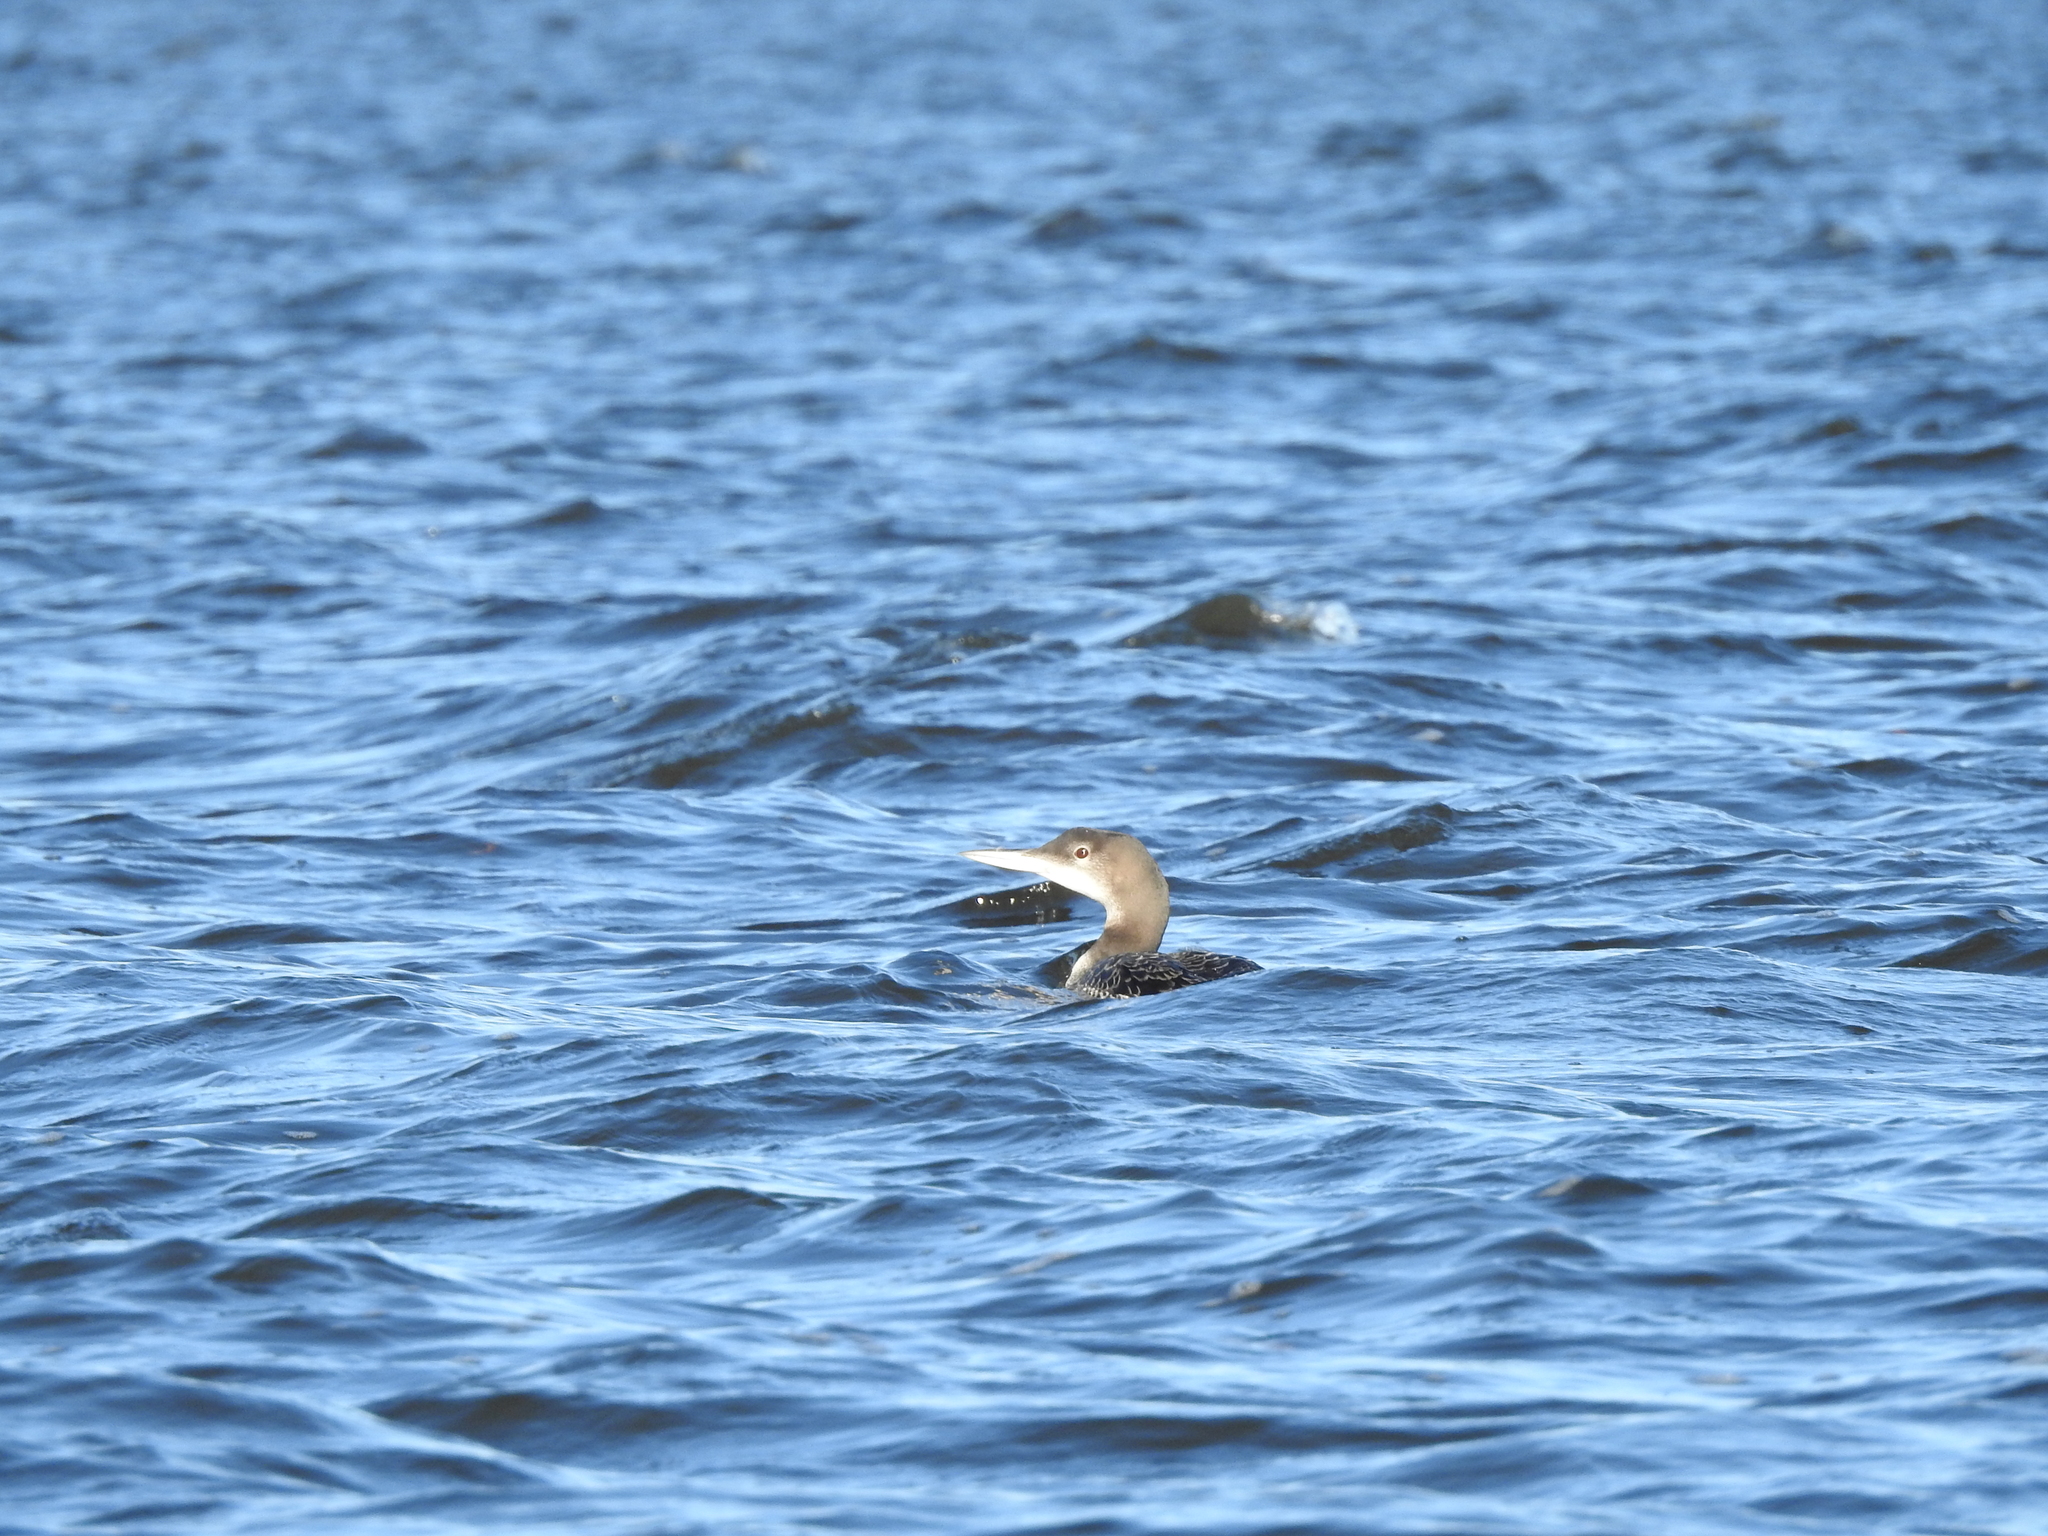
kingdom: Animalia
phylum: Chordata
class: Aves
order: Gaviiformes
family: Gaviidae
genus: Gavia
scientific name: Gavia immer
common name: Common loon
